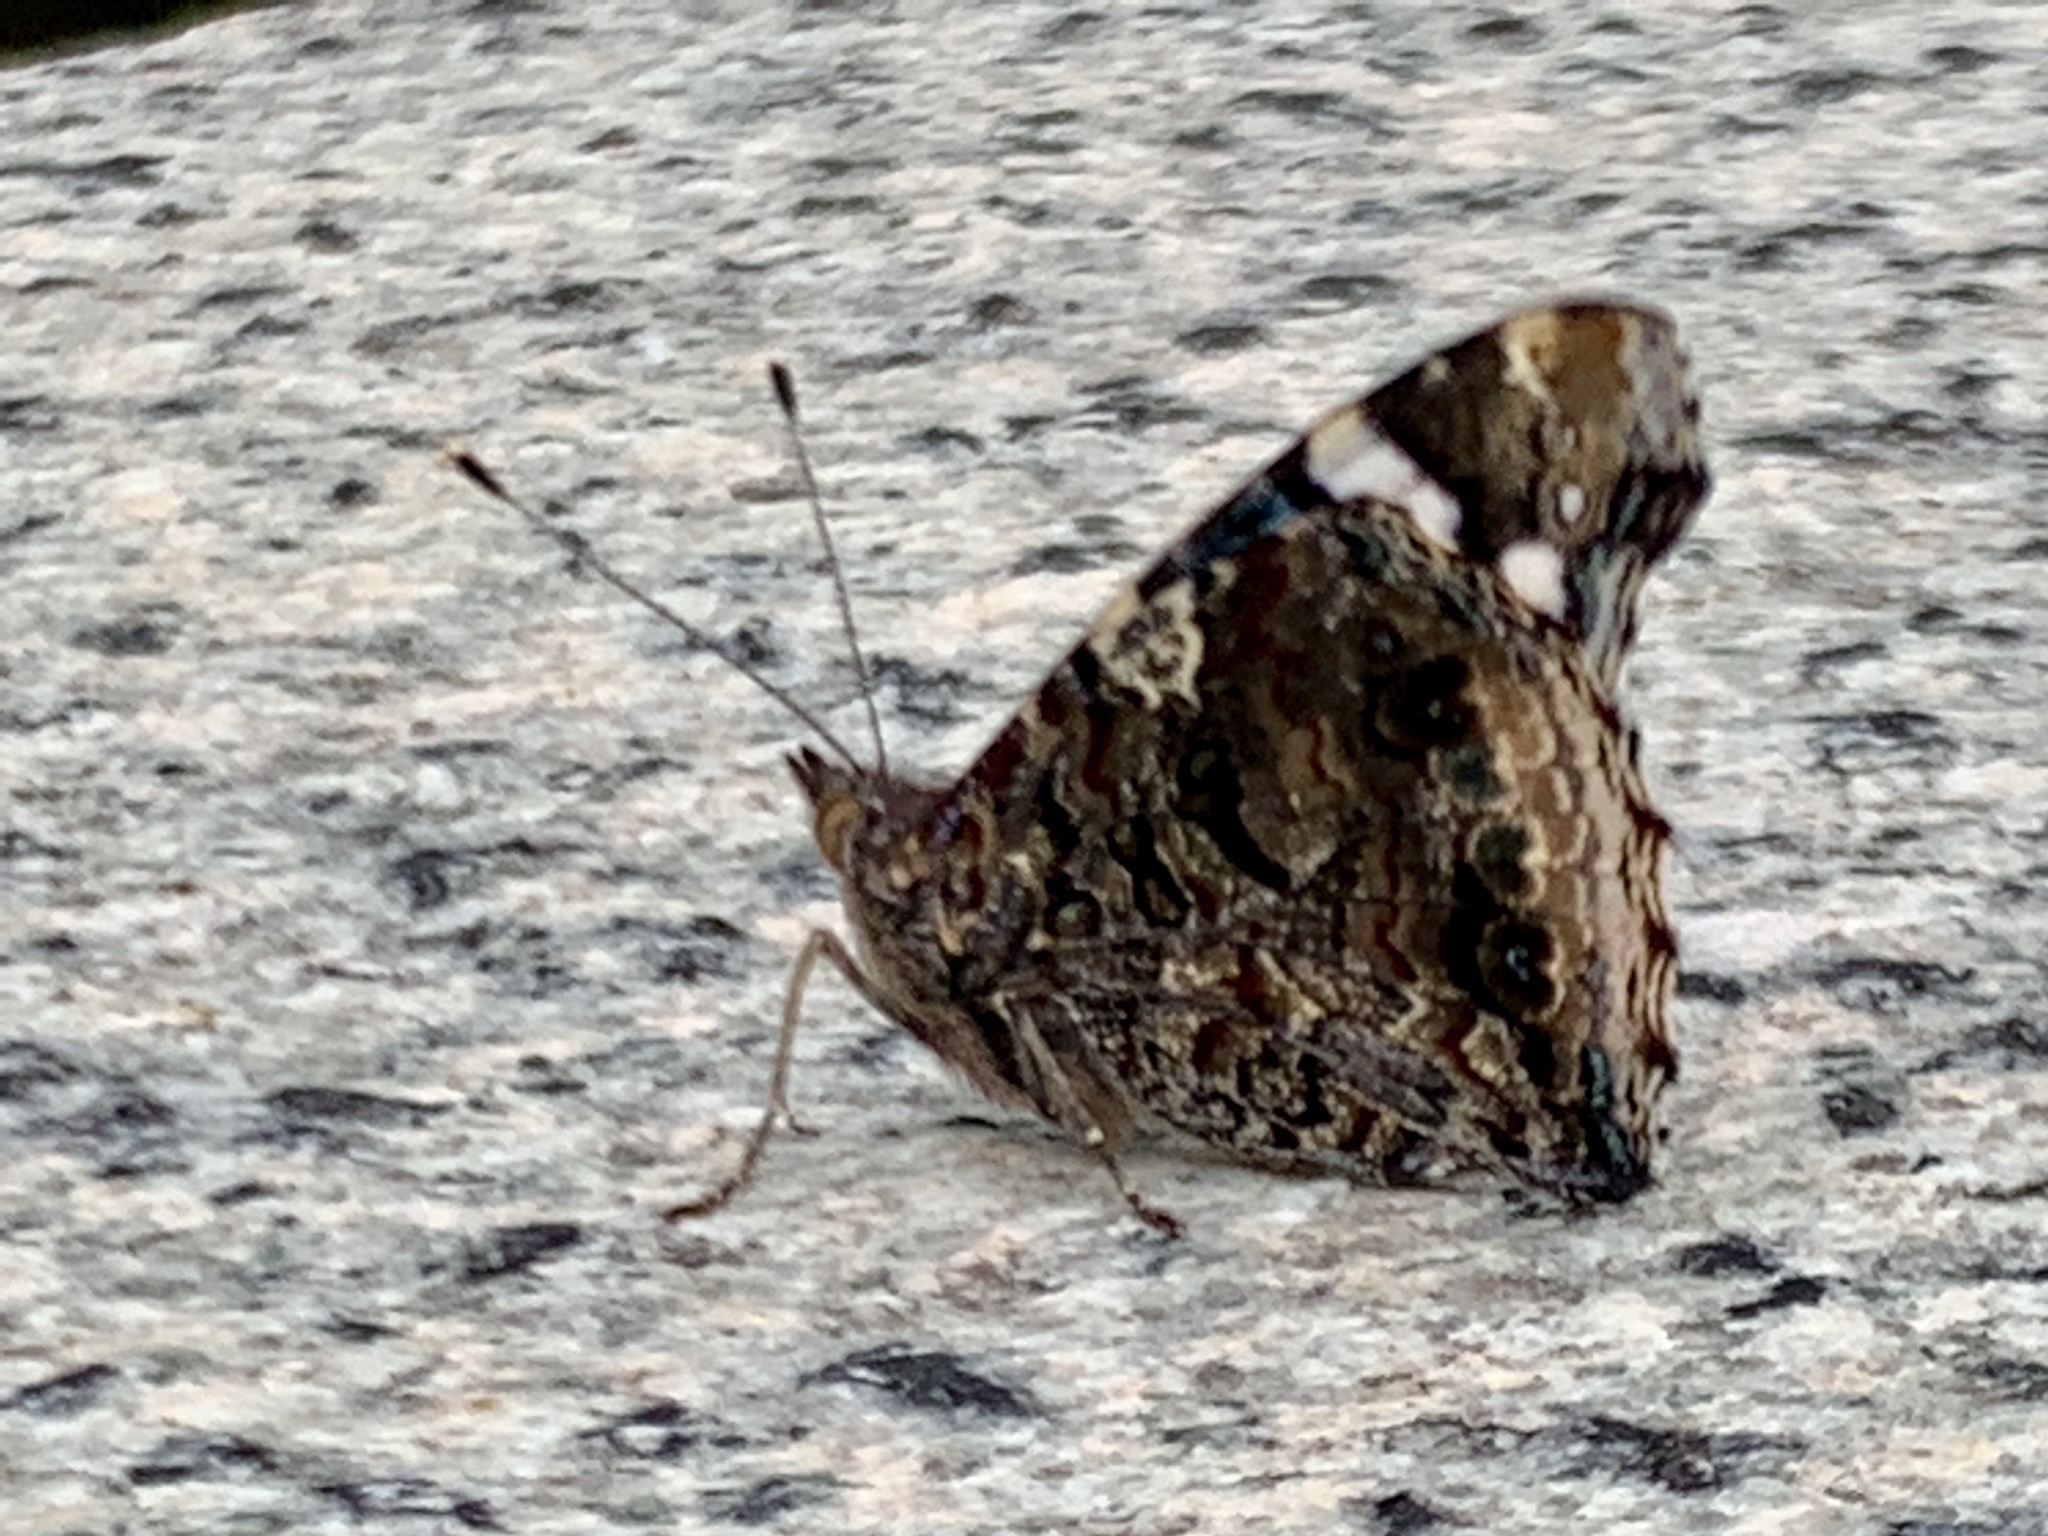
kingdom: Animalia
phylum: Arthropoda
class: Insecta
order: Lepidoptera
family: Nymphalidae
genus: Vanessa
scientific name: Vanessa atalanta
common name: Red admiral
